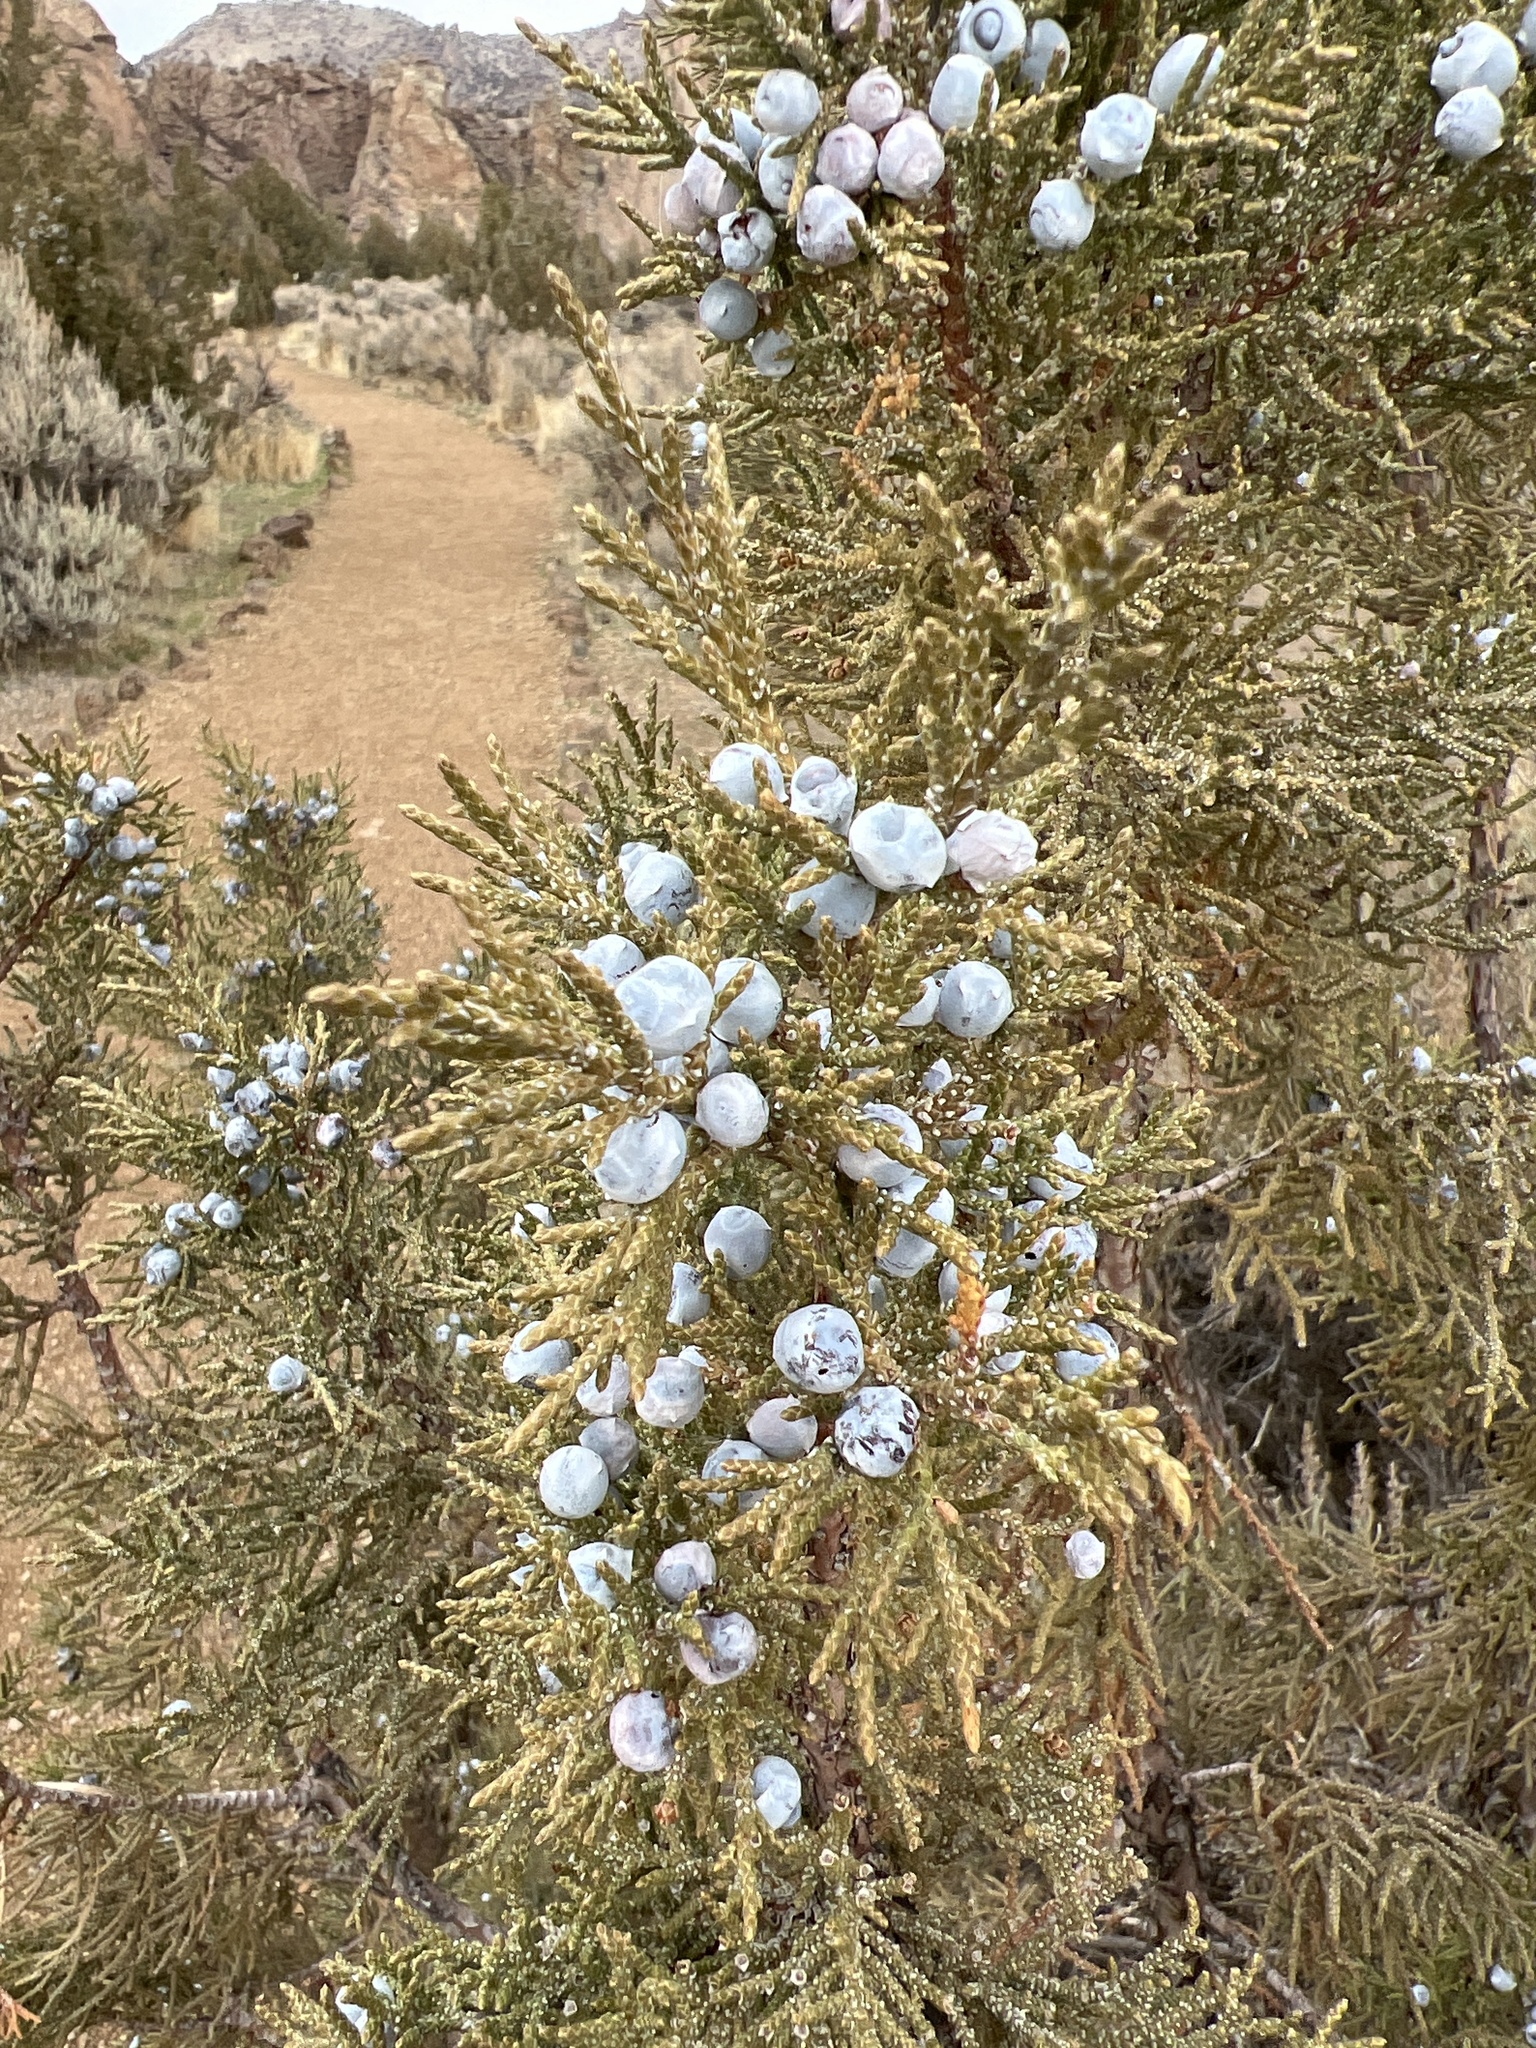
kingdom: Plantae
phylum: Tracheophyta
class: Pinopsida
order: Pinales
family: Cupressaceae
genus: Juniperus
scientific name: Juniperus occidentalis
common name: Western juniper
